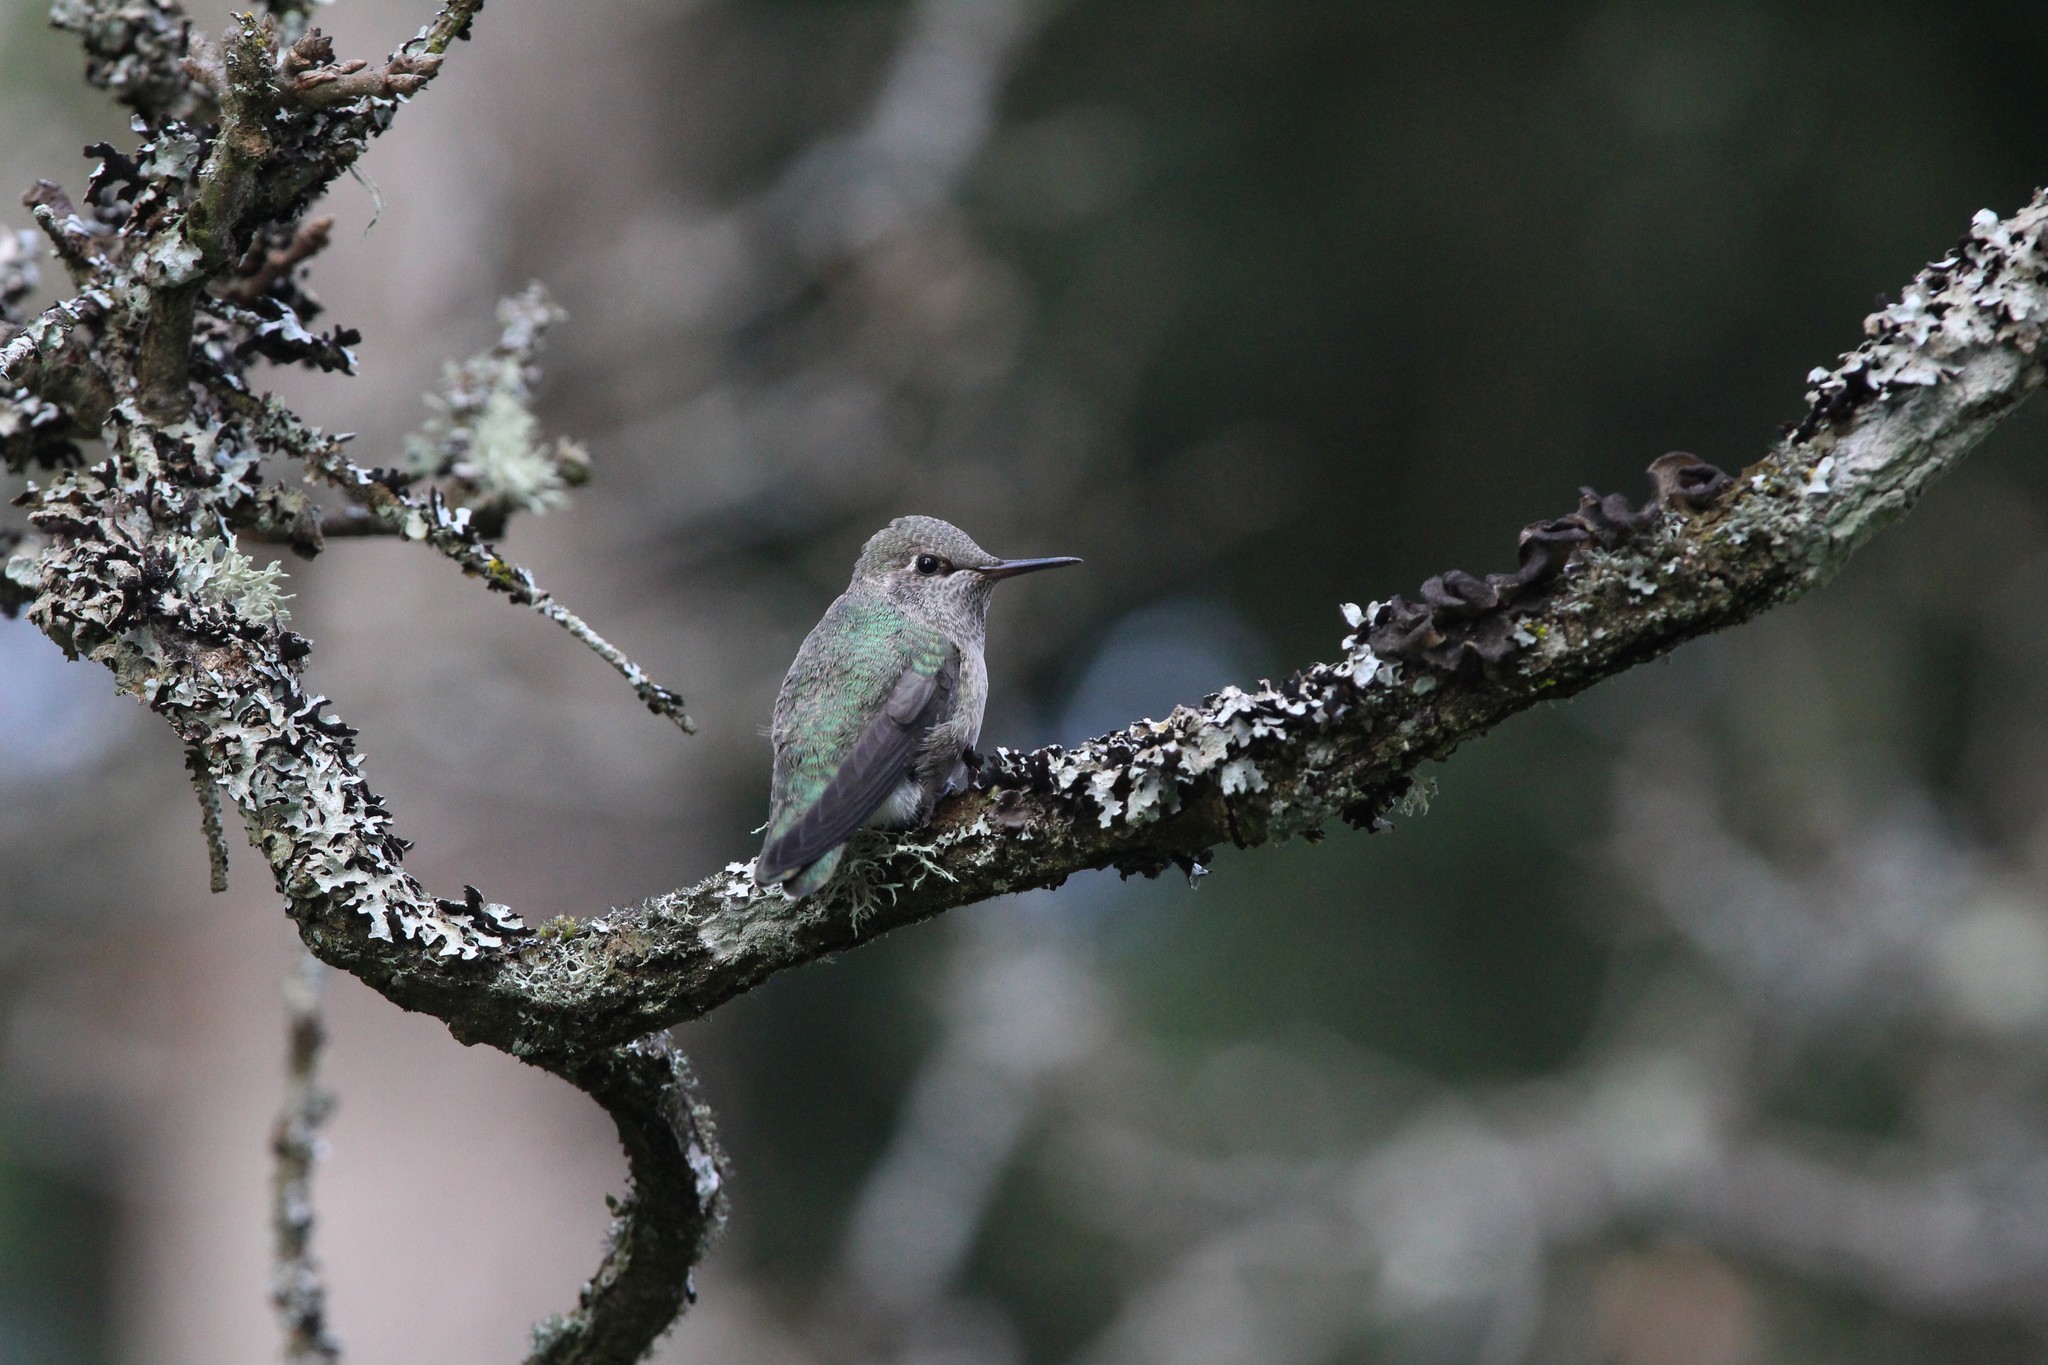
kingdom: Animalia
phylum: Chordata
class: Aves
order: Apodiformes
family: Trochilidae
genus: Calypte
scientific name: Calypte anna
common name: Anna's hummingbird
